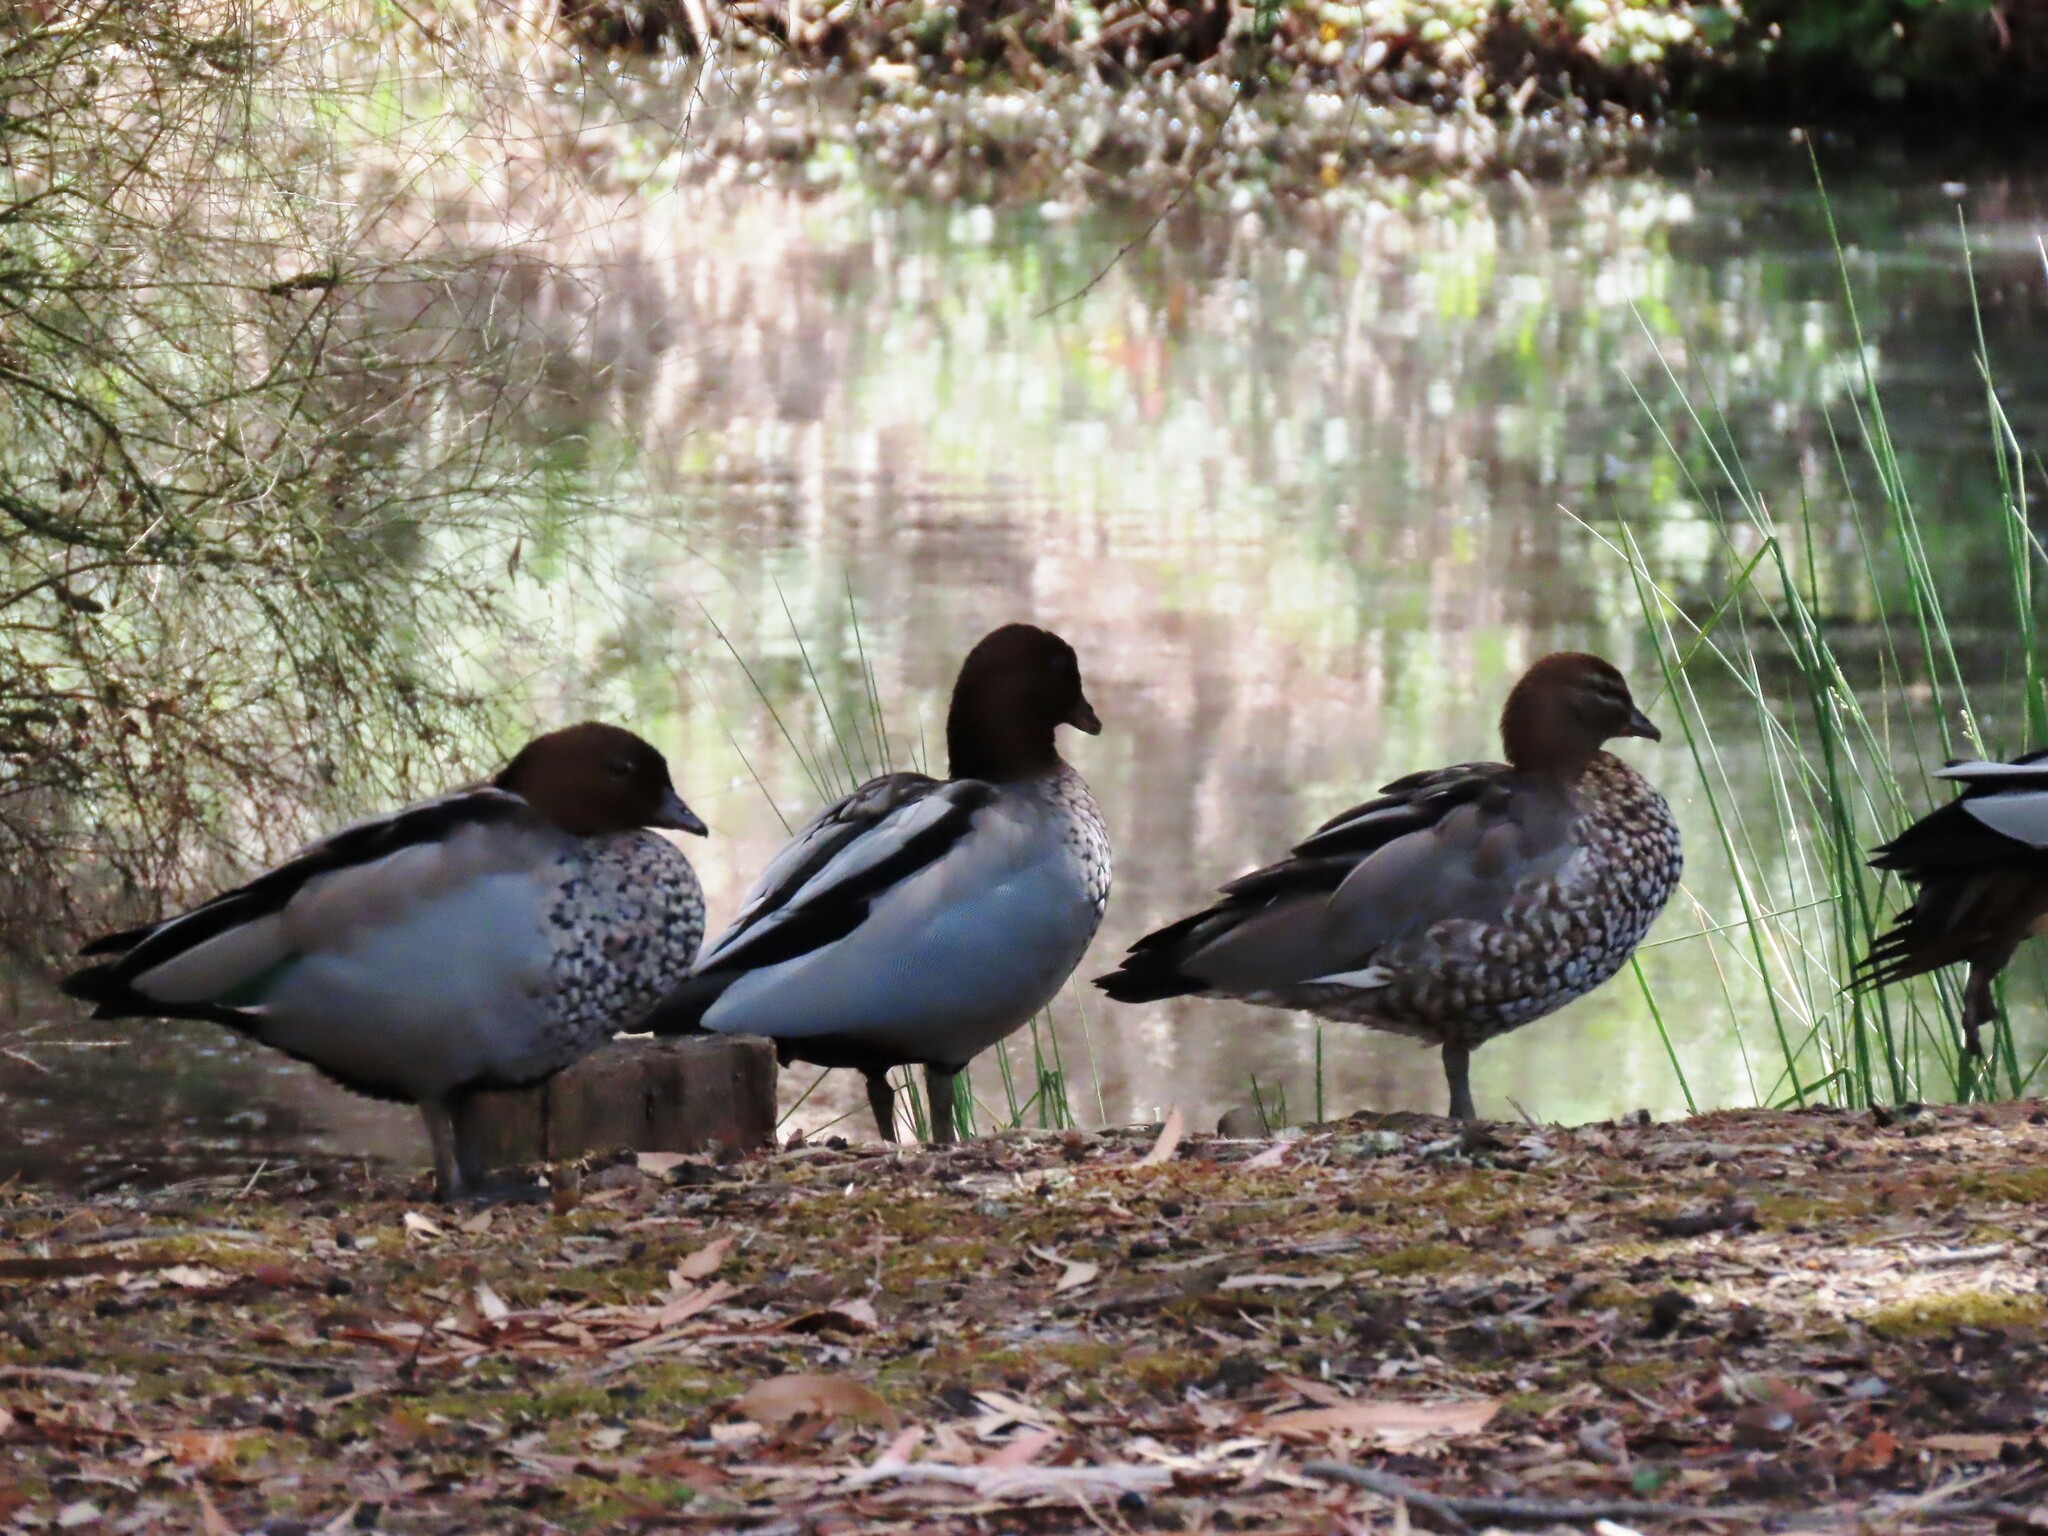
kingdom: Animalia
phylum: Chordata
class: Aves
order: Anseriformes
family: Anatidae
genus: Chenonetta
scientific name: Chenonetta jubata
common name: Maned duck
